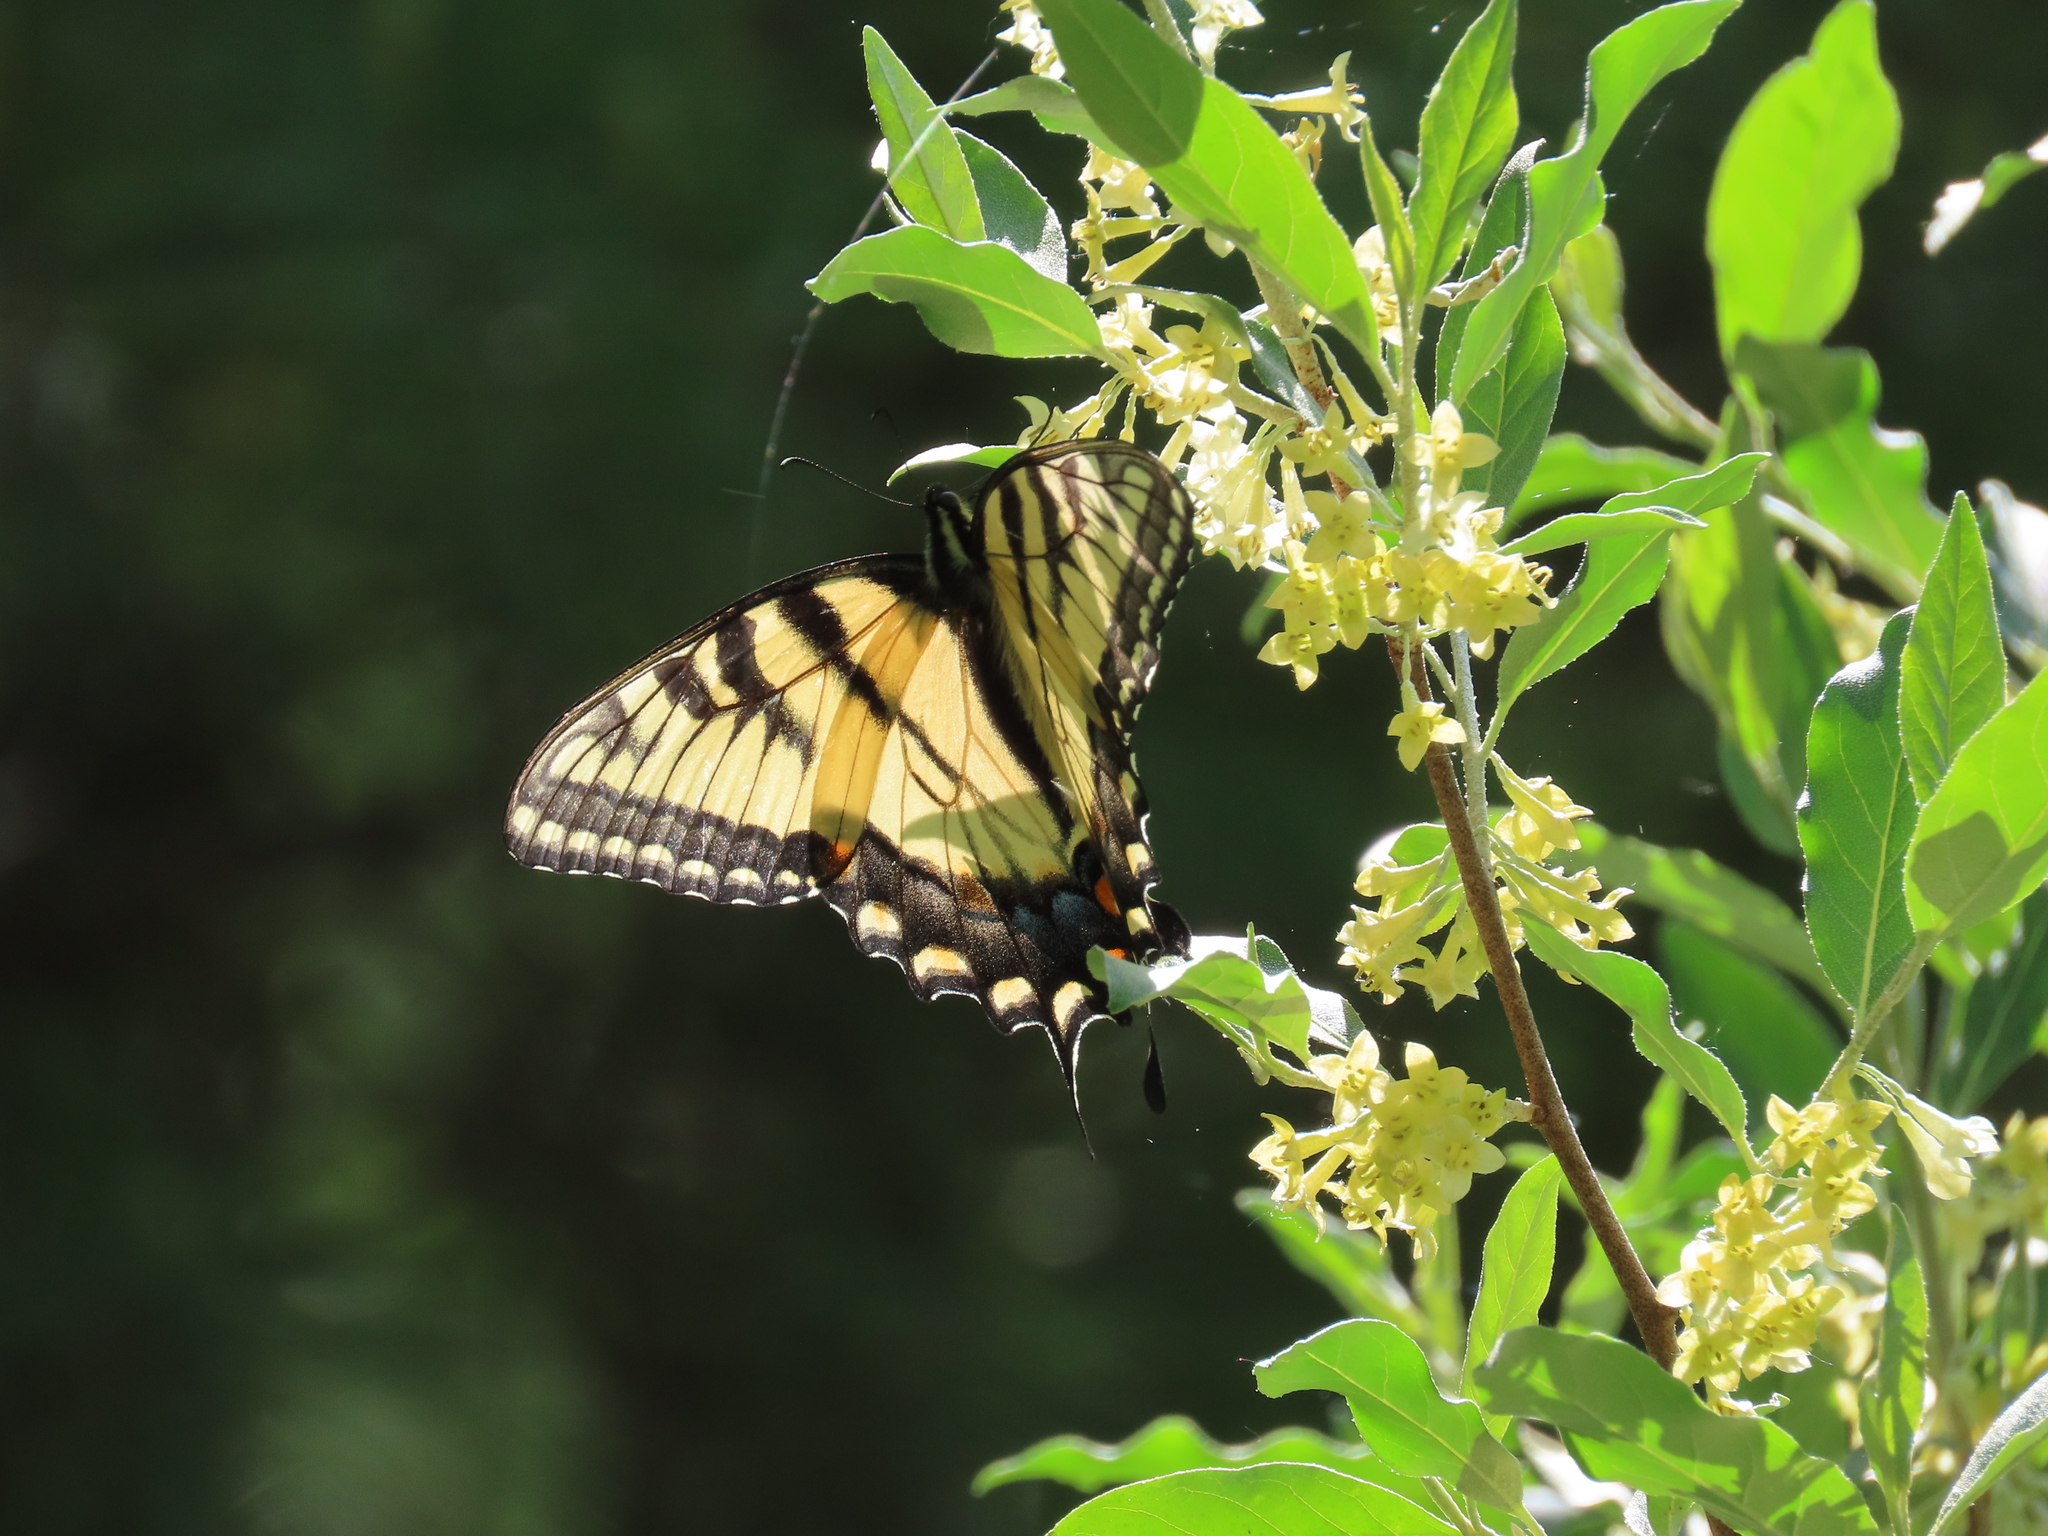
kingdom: Animalia
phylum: Arthropoda
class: Insecta
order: Lepidoptera
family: Papilionidae
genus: Papilio
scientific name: Papilio glaucus
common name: Tiger swallowtail
